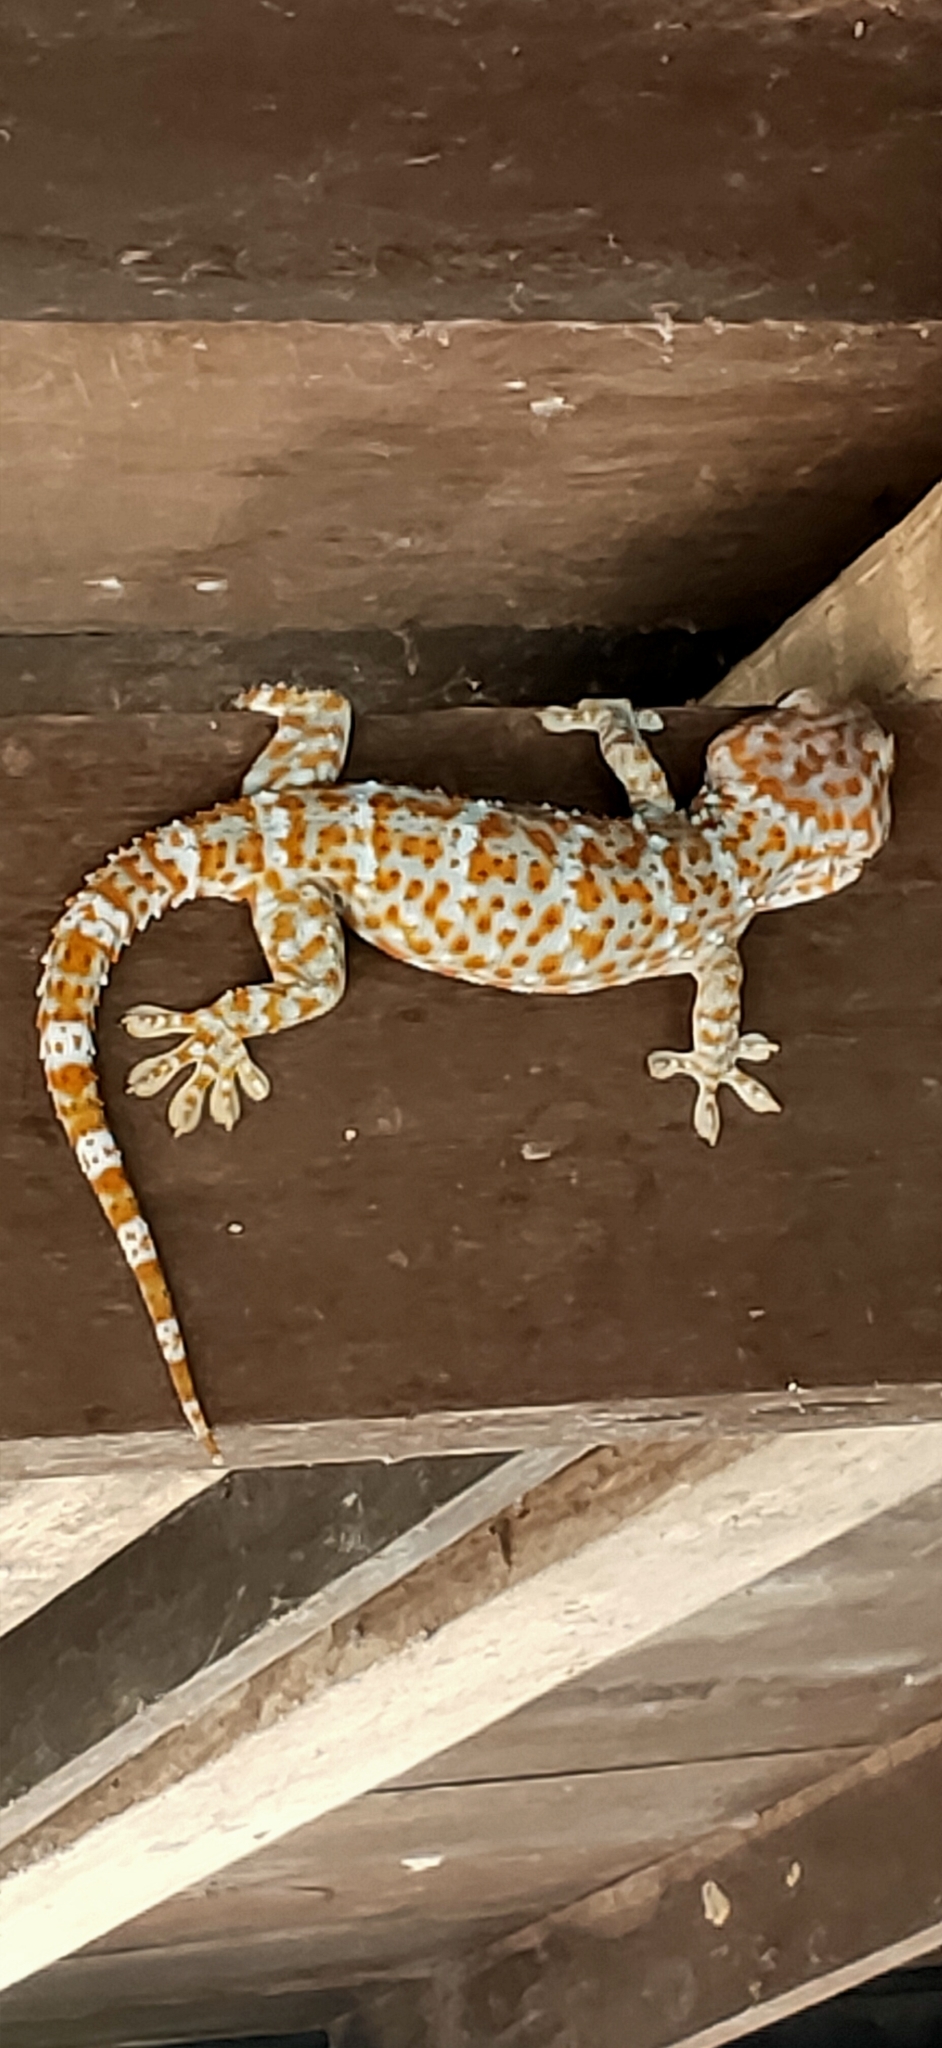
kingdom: Animalia
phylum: Chordata
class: Squamata
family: Gekkonidae
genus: Gekko
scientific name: Gekko gecko
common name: Tokay gecko
